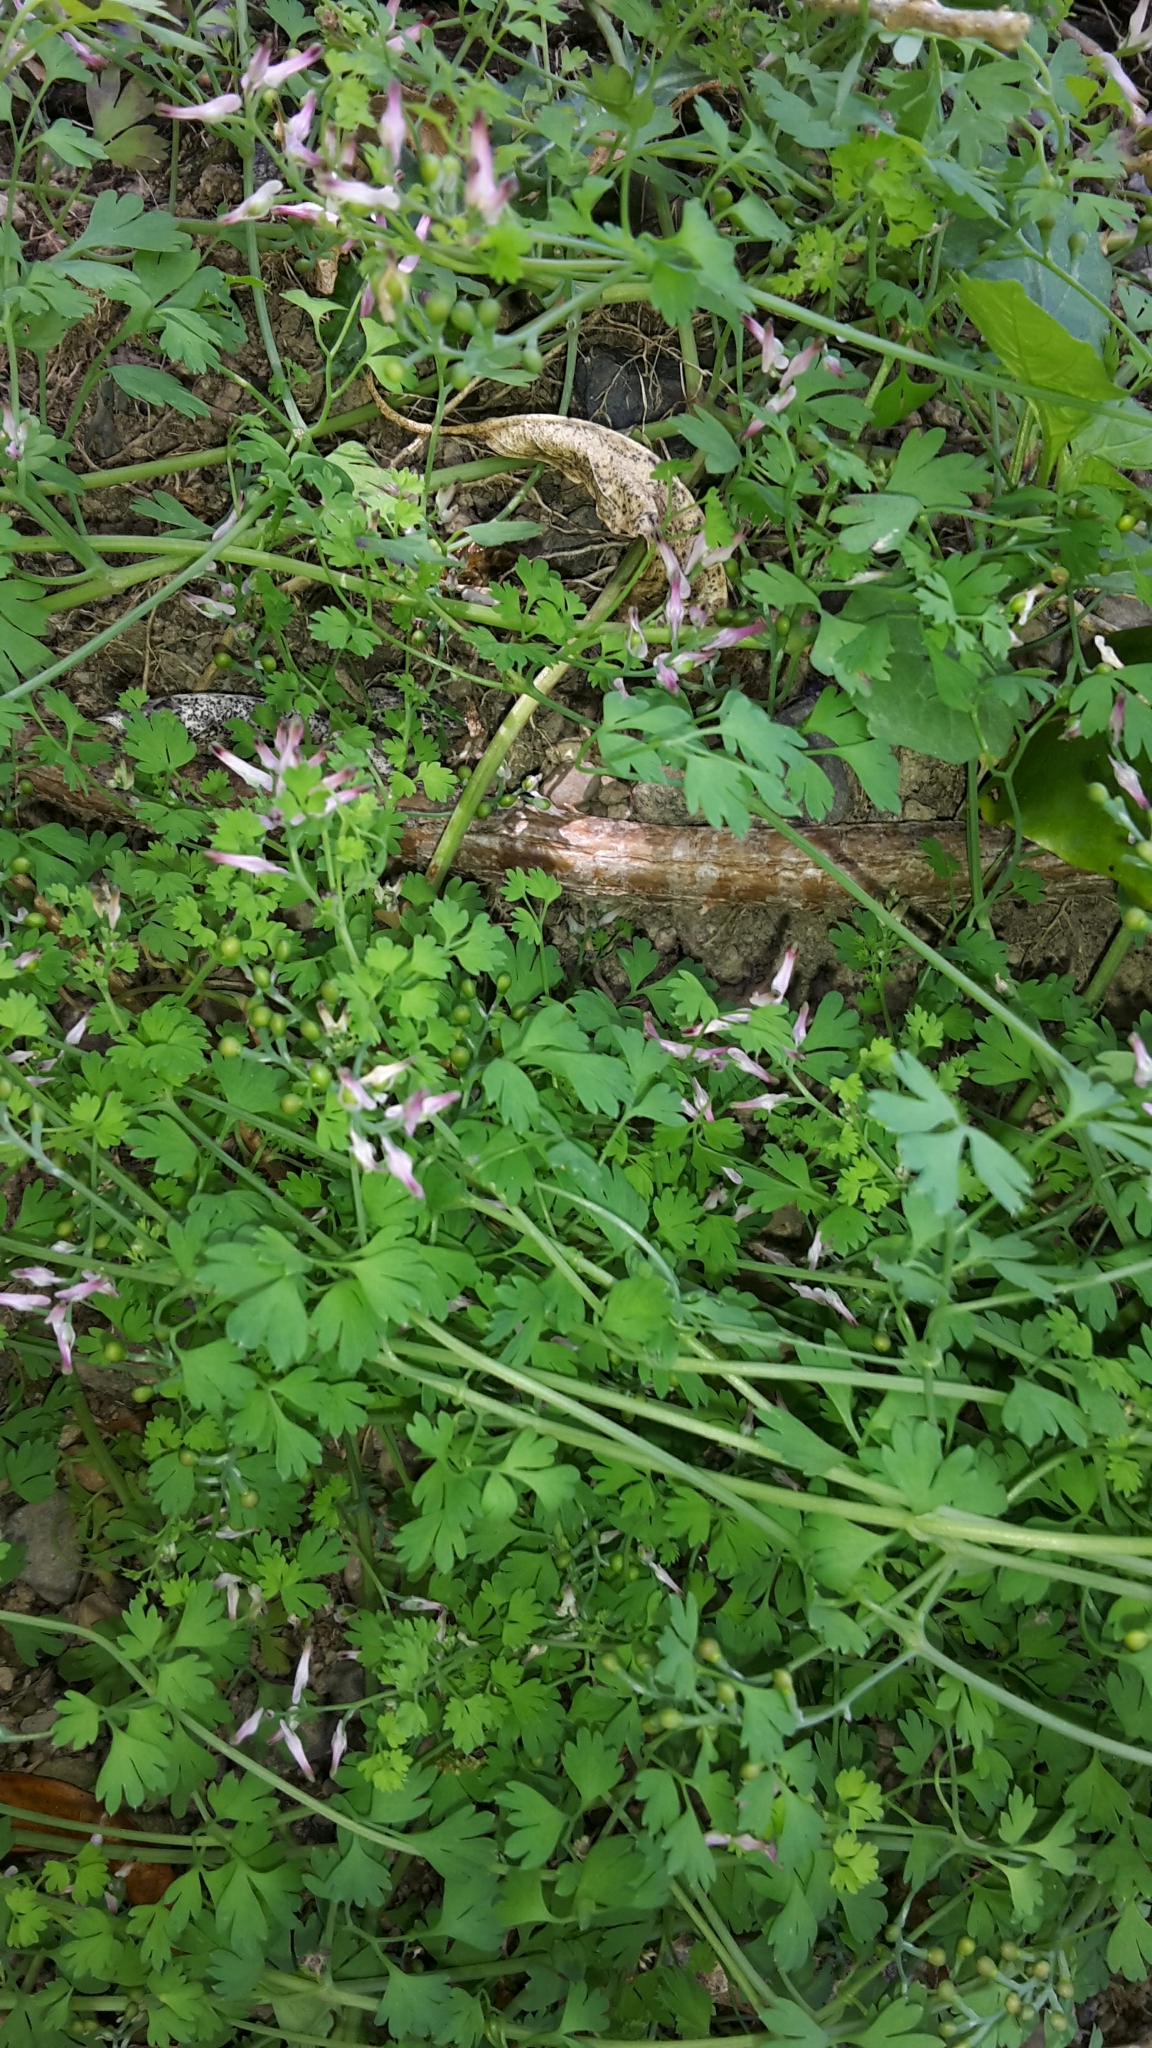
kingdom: Plantae
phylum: Tracheophyta
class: Magnoliopsida
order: Ranunculales
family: Papaveraceae
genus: Fumaria
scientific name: Fumaria muralis
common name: Common ramping-fumitory
